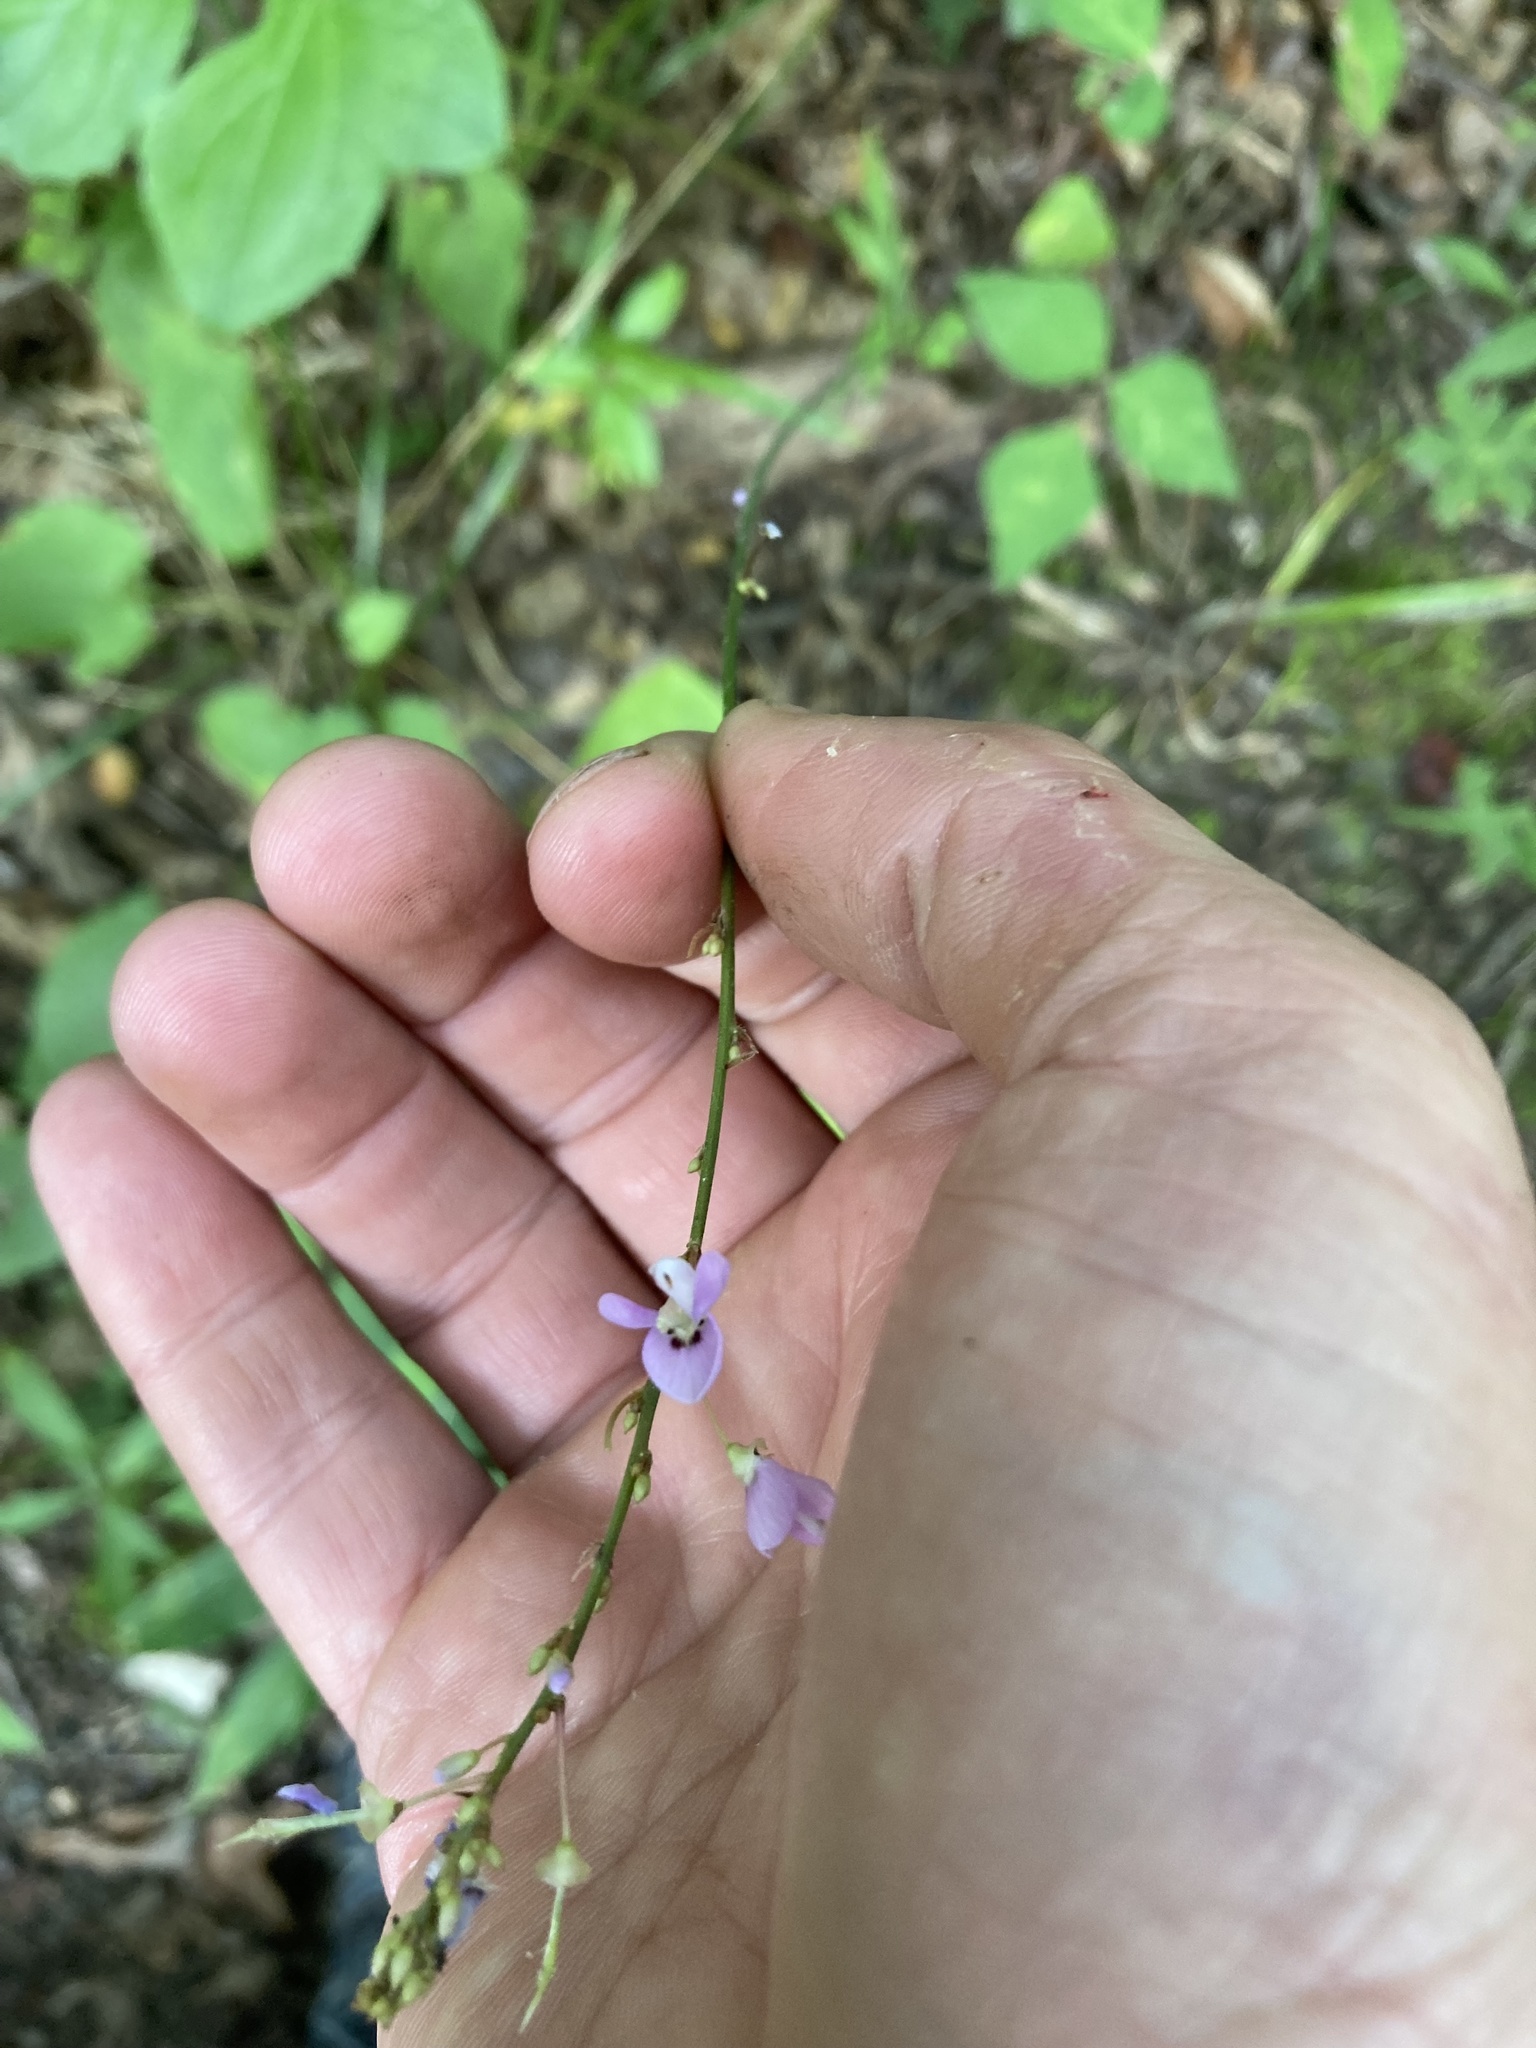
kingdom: Plantae
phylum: Tracheophyta
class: Magnoliopsida
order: Fabales
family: Fabaceae
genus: Hylodesmum
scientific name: Hylodesmum nudiflorum
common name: Bare-stemmed tick-trefoil
